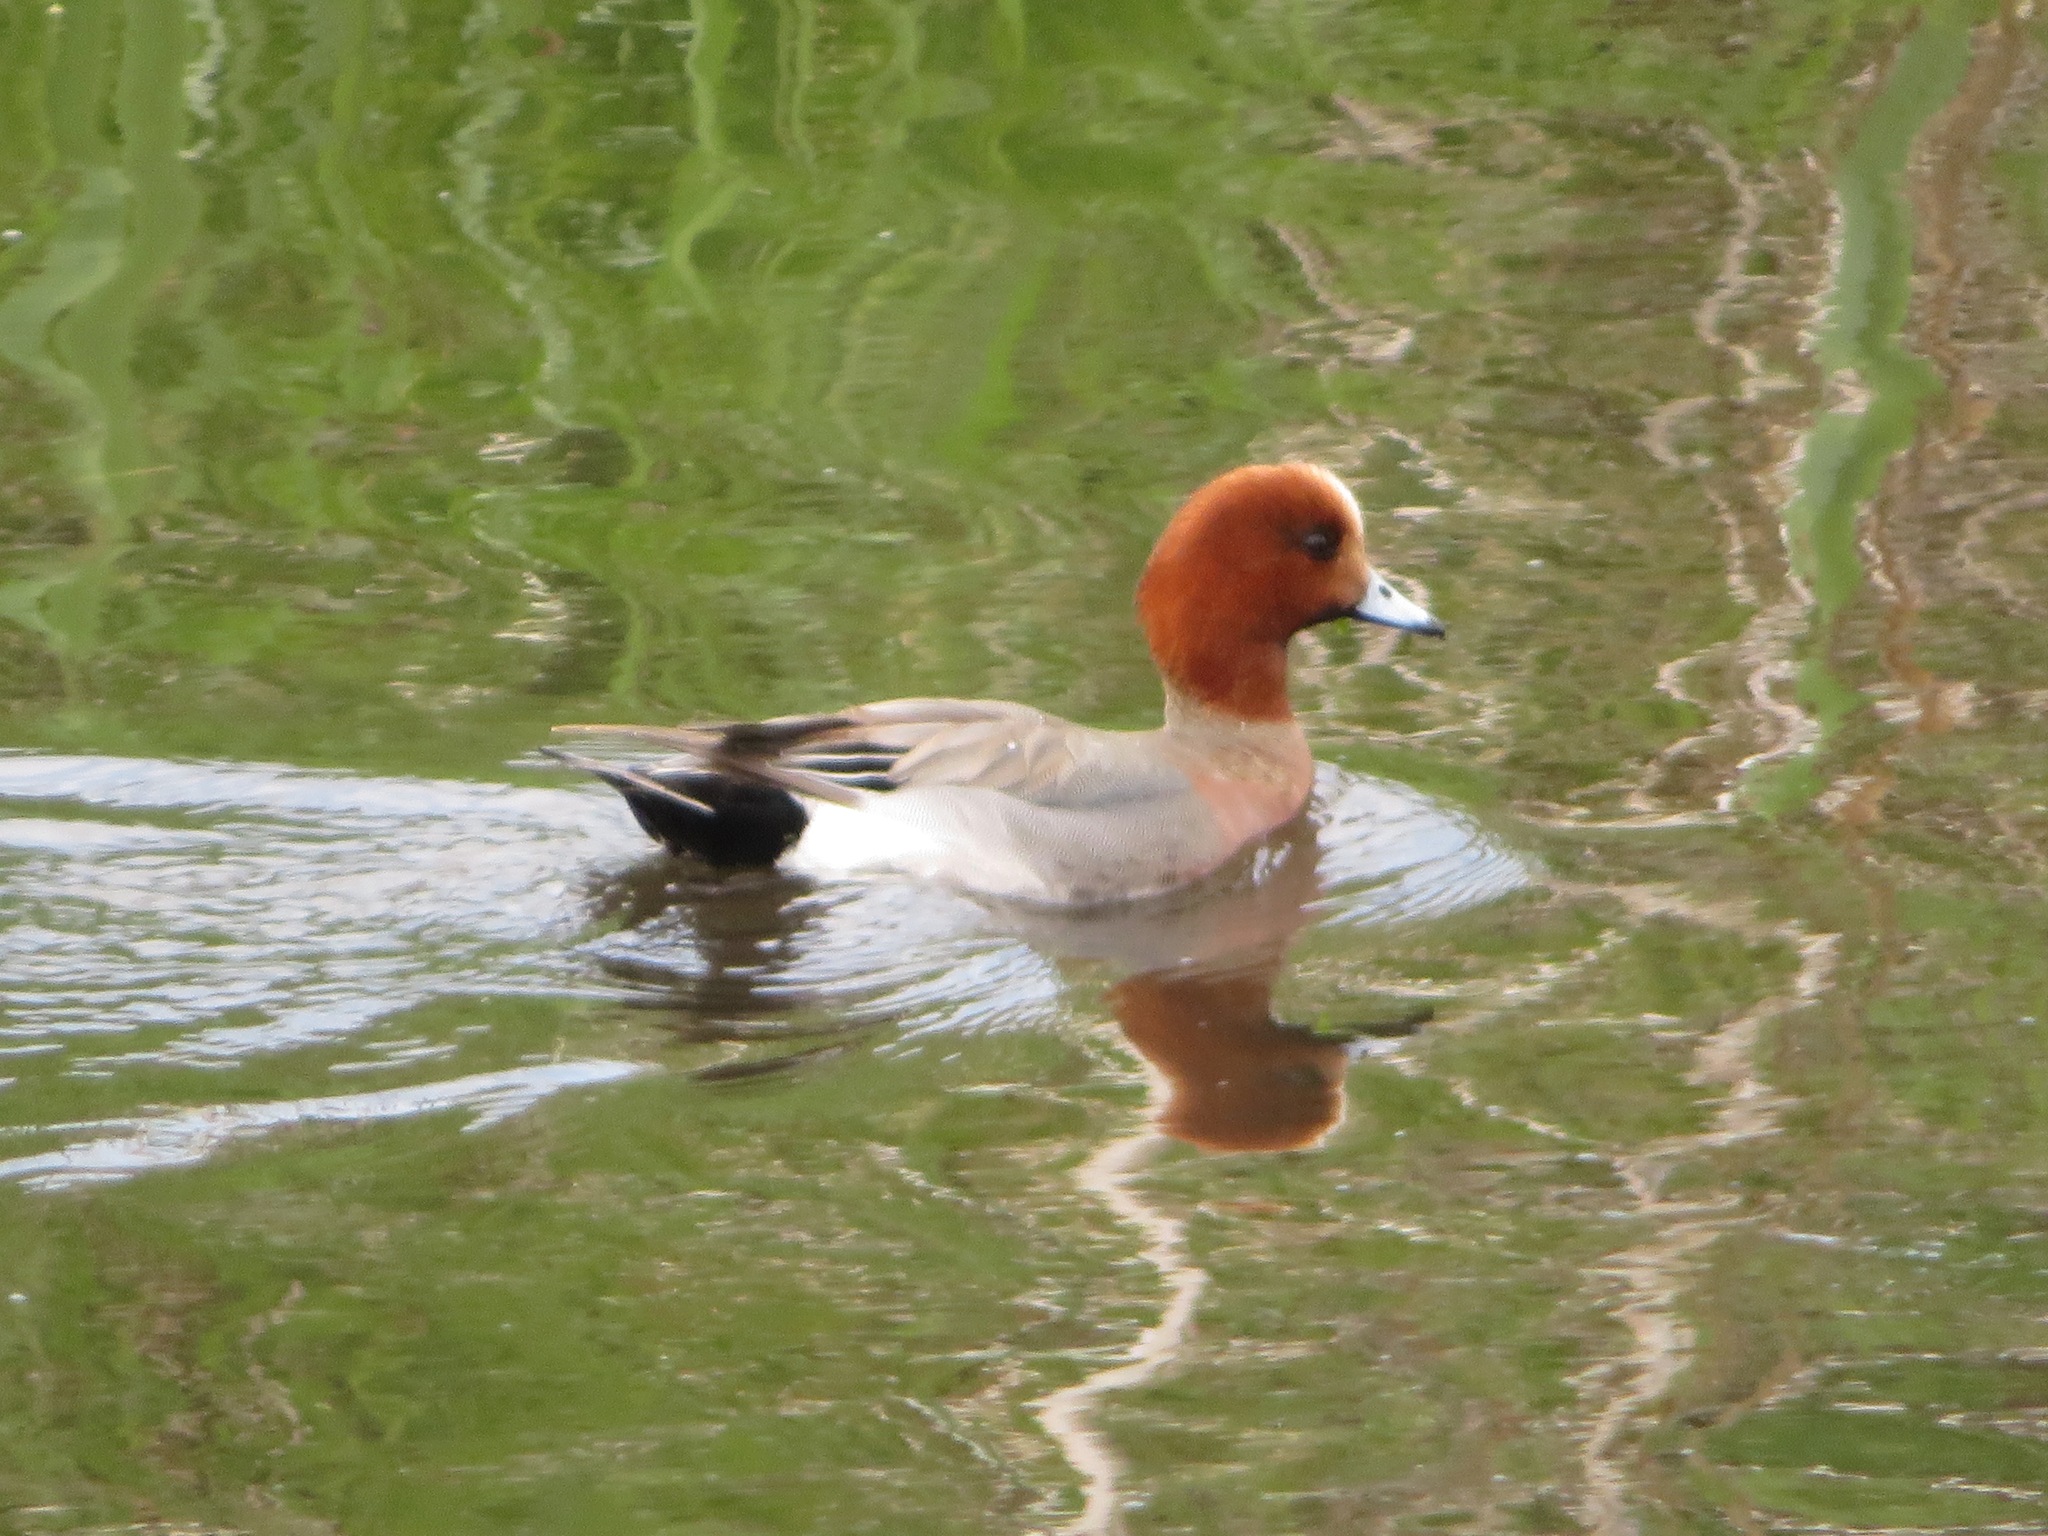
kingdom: Animalia
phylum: Chordata
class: Aves
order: Anseriformes
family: Anatidae
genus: Mareca
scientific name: Mareca penelope
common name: Eurasian wigeon
